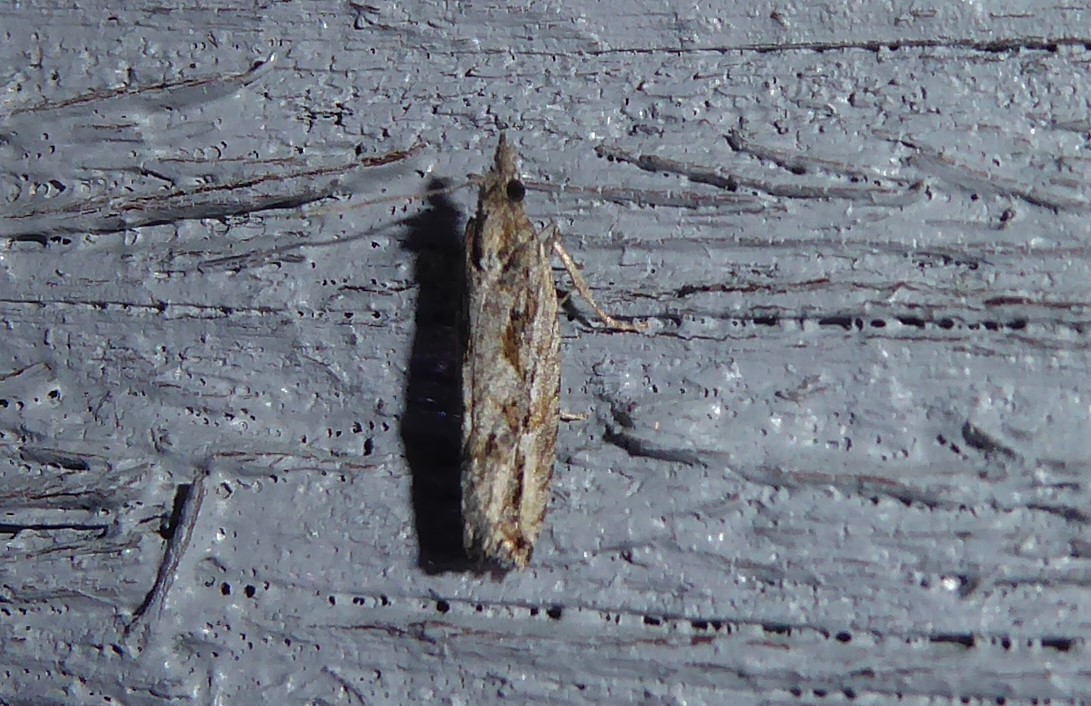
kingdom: Animalia
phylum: Arthropoda
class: Insecta
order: Lepidoptera
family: Tortricidae
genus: Strepsicrates
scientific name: Strepsicrates ejectana
